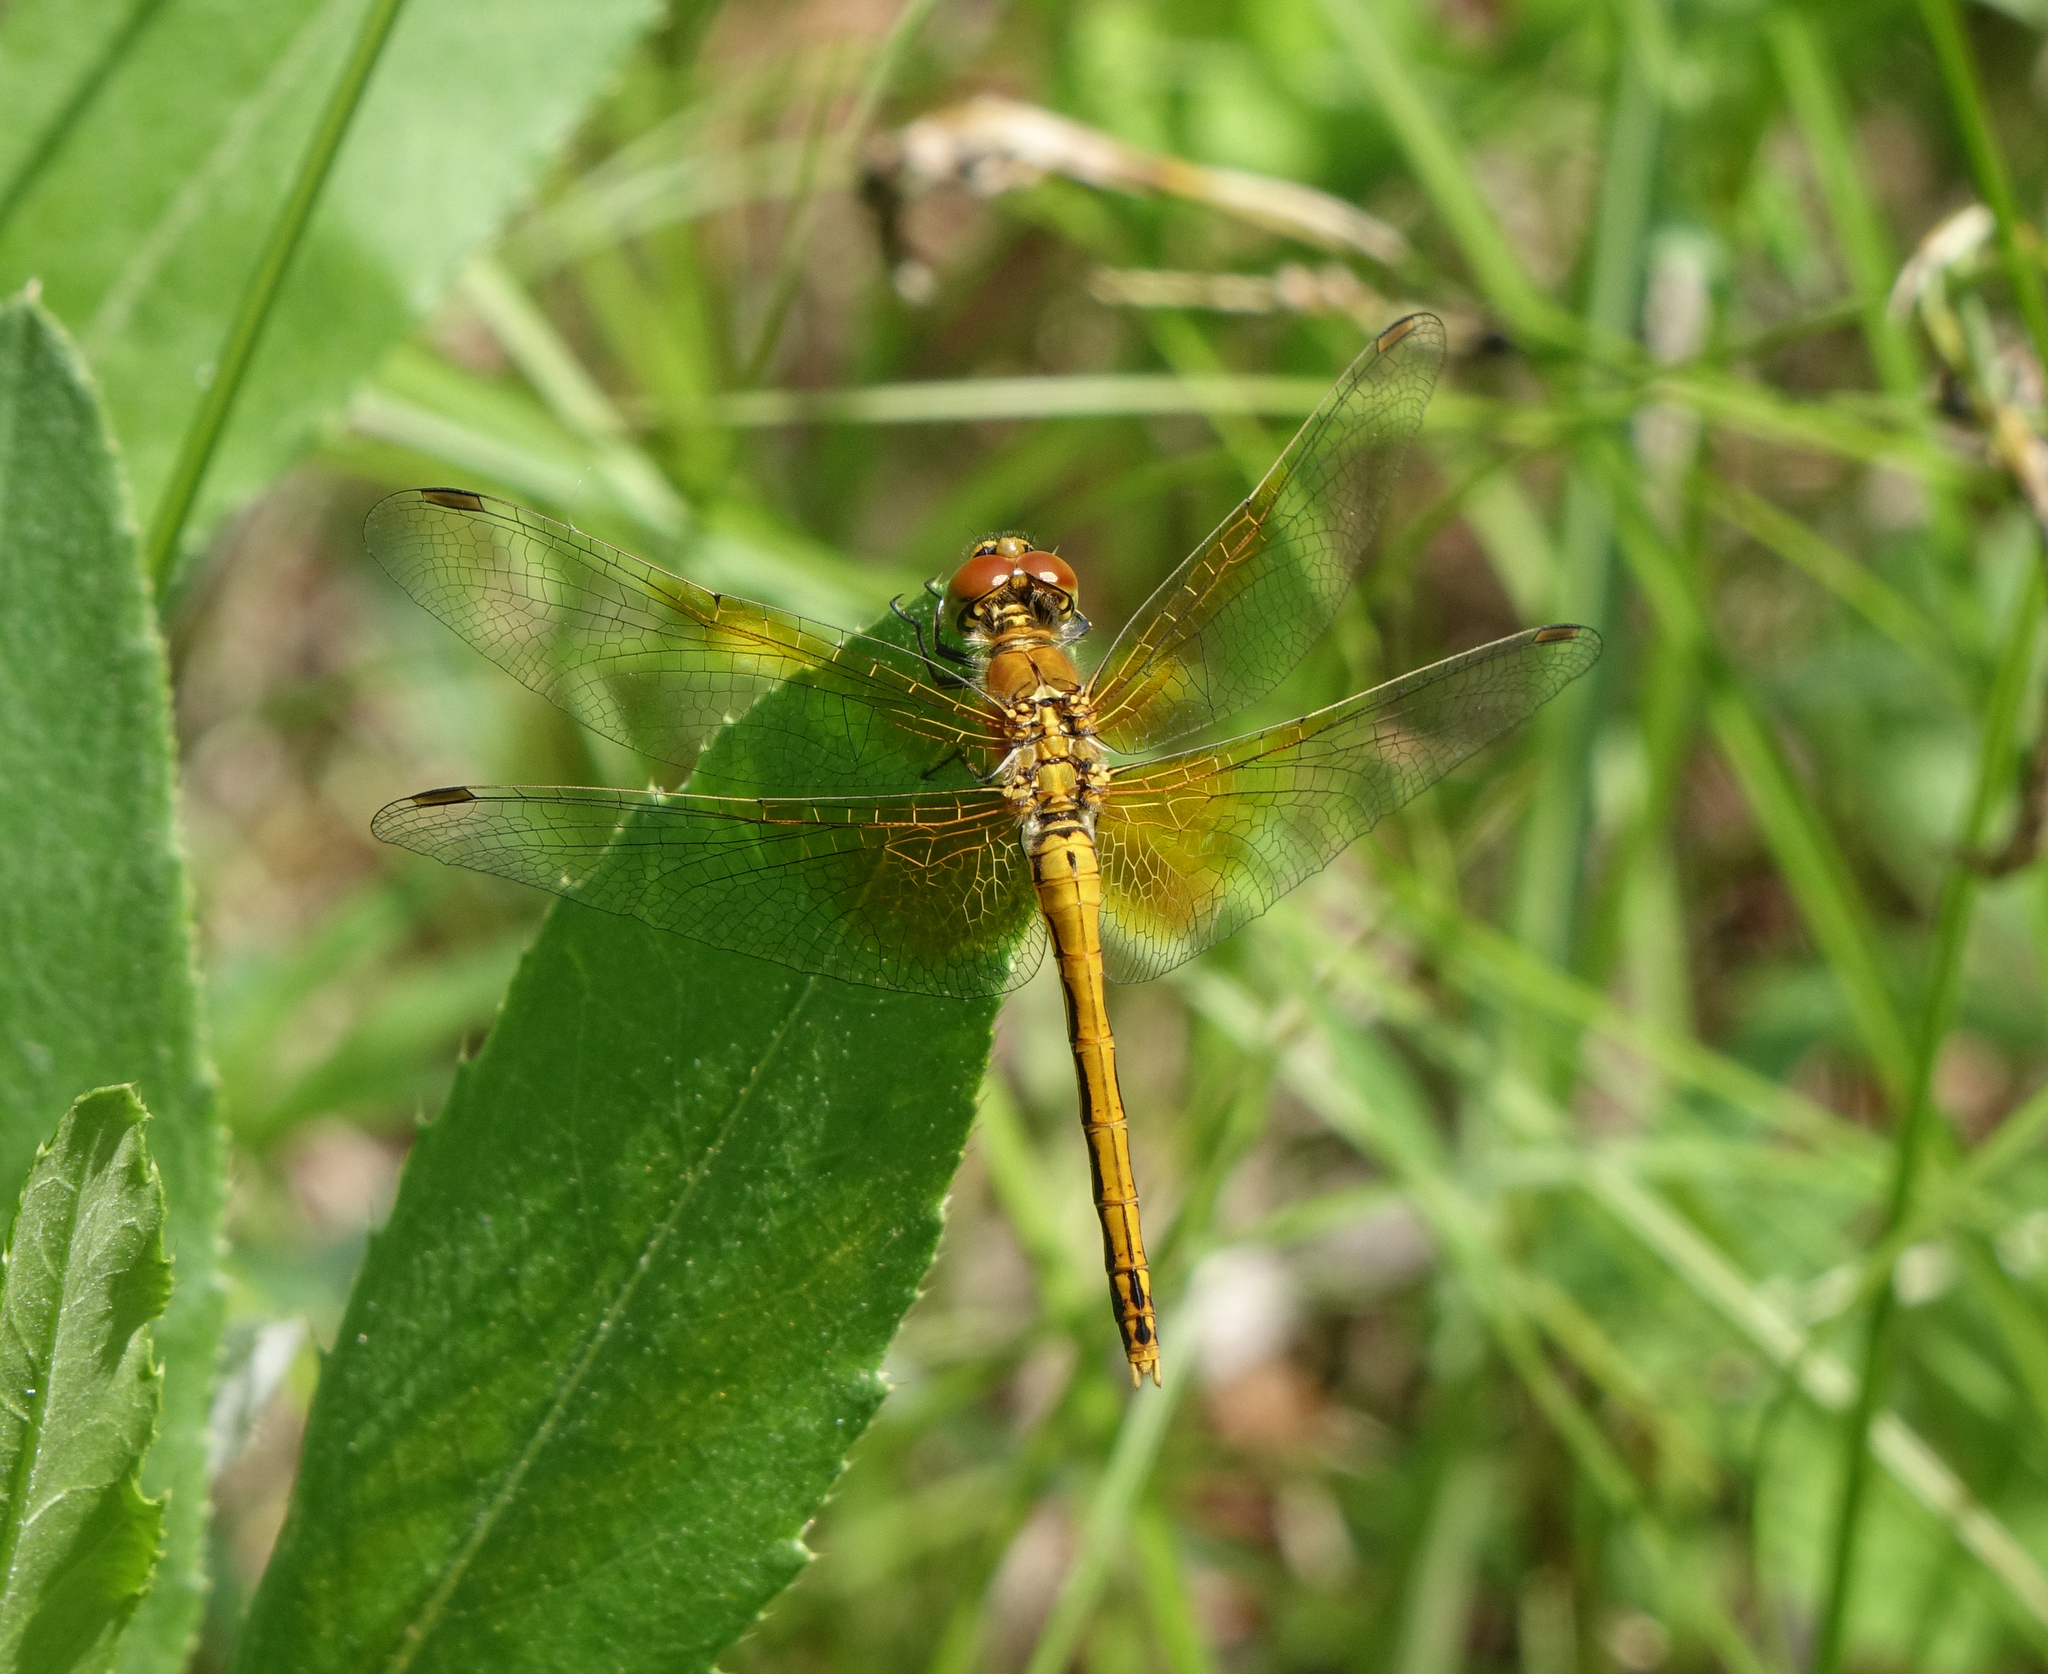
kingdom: Animalia
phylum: Arthropoda
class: Insecta
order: Odonata
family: Libellulidae
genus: Sympetrum
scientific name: Sympetrum flaveolum
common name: Yellow-winged darter
